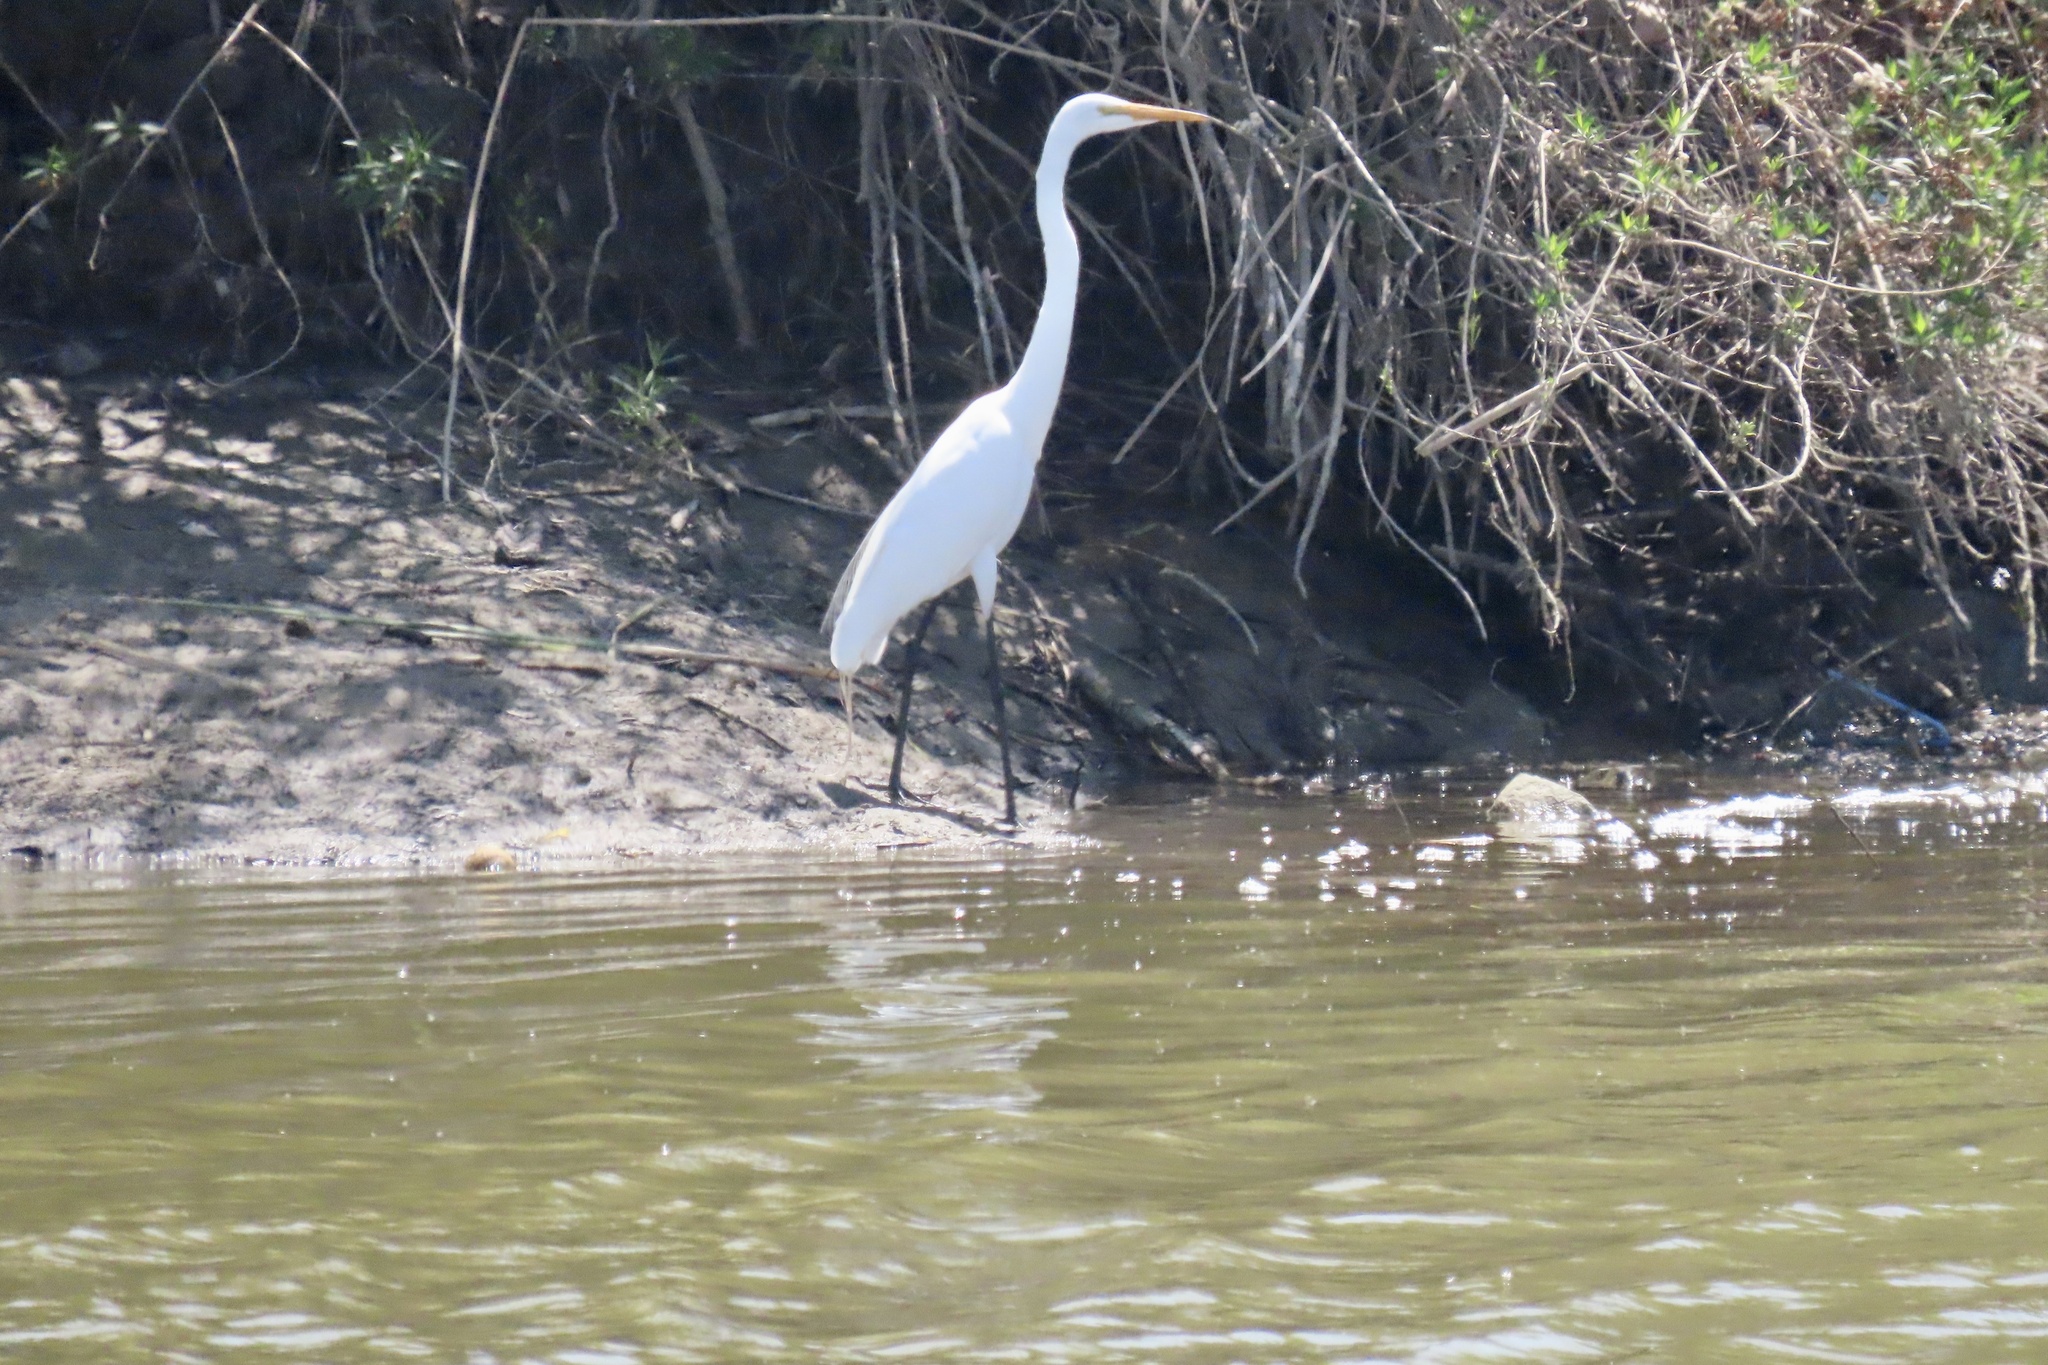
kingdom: Animalia
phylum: Chordata
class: Aves
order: Pelecaniformes
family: Ardeidae
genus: Ardea
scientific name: Ardea alba
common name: Great egret
